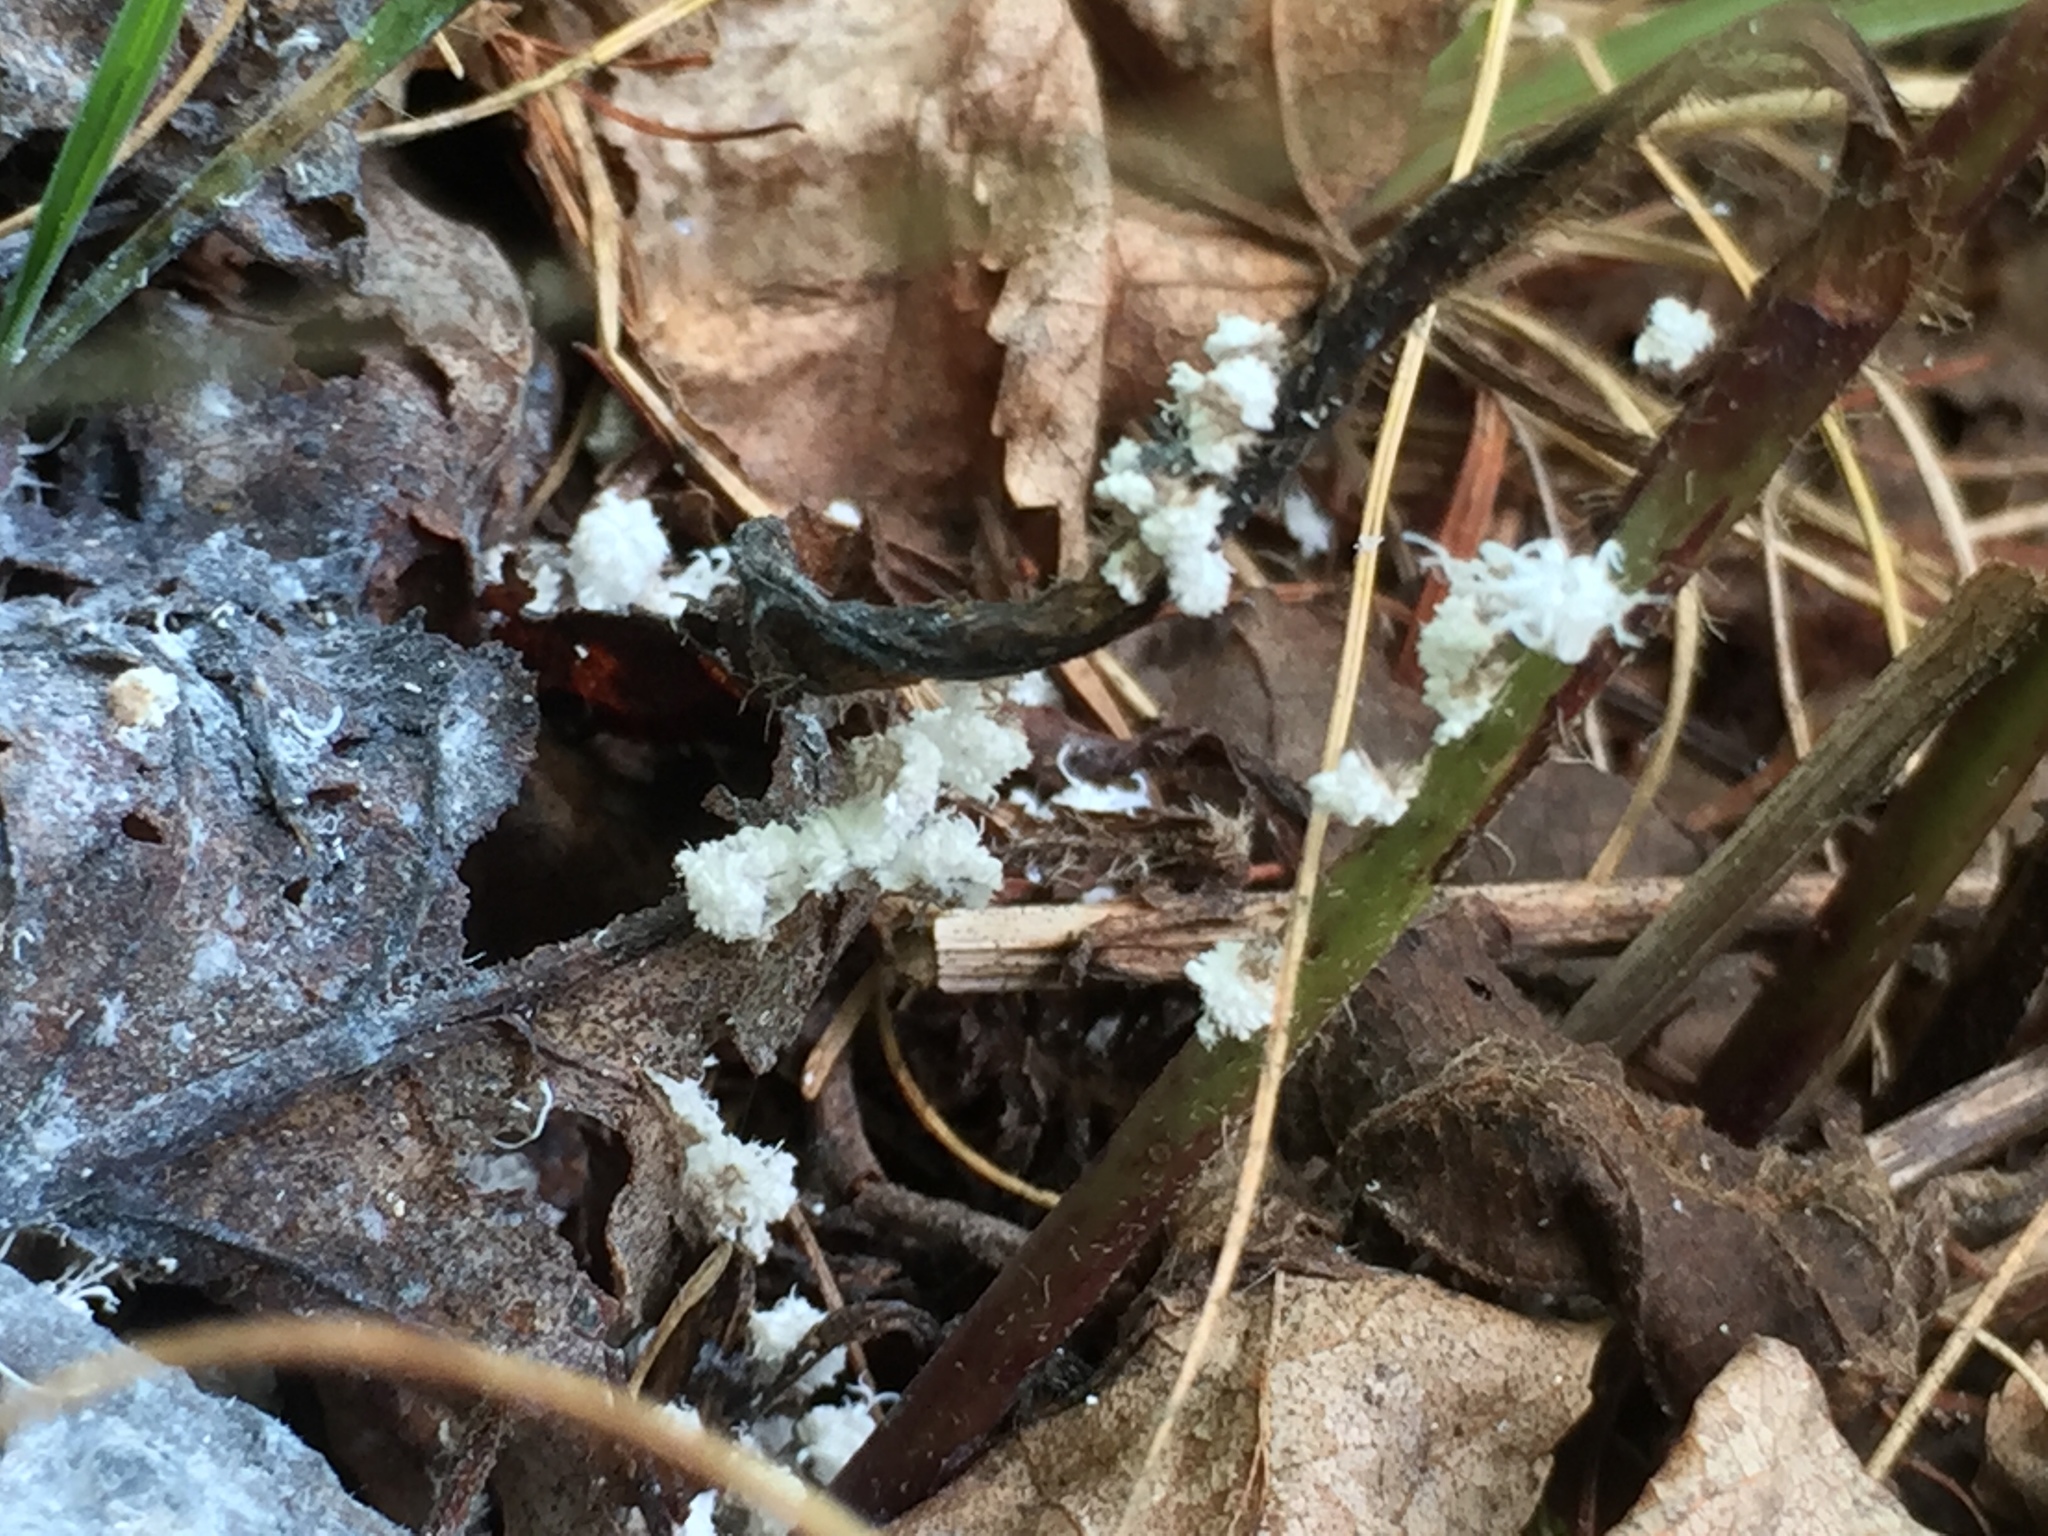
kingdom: Animalia
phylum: Arthropoda
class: Insecta
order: Hemiptera
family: Aphididae
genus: Prociphilus
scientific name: Prociphilus tessellatus
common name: Woolly alder aphid
